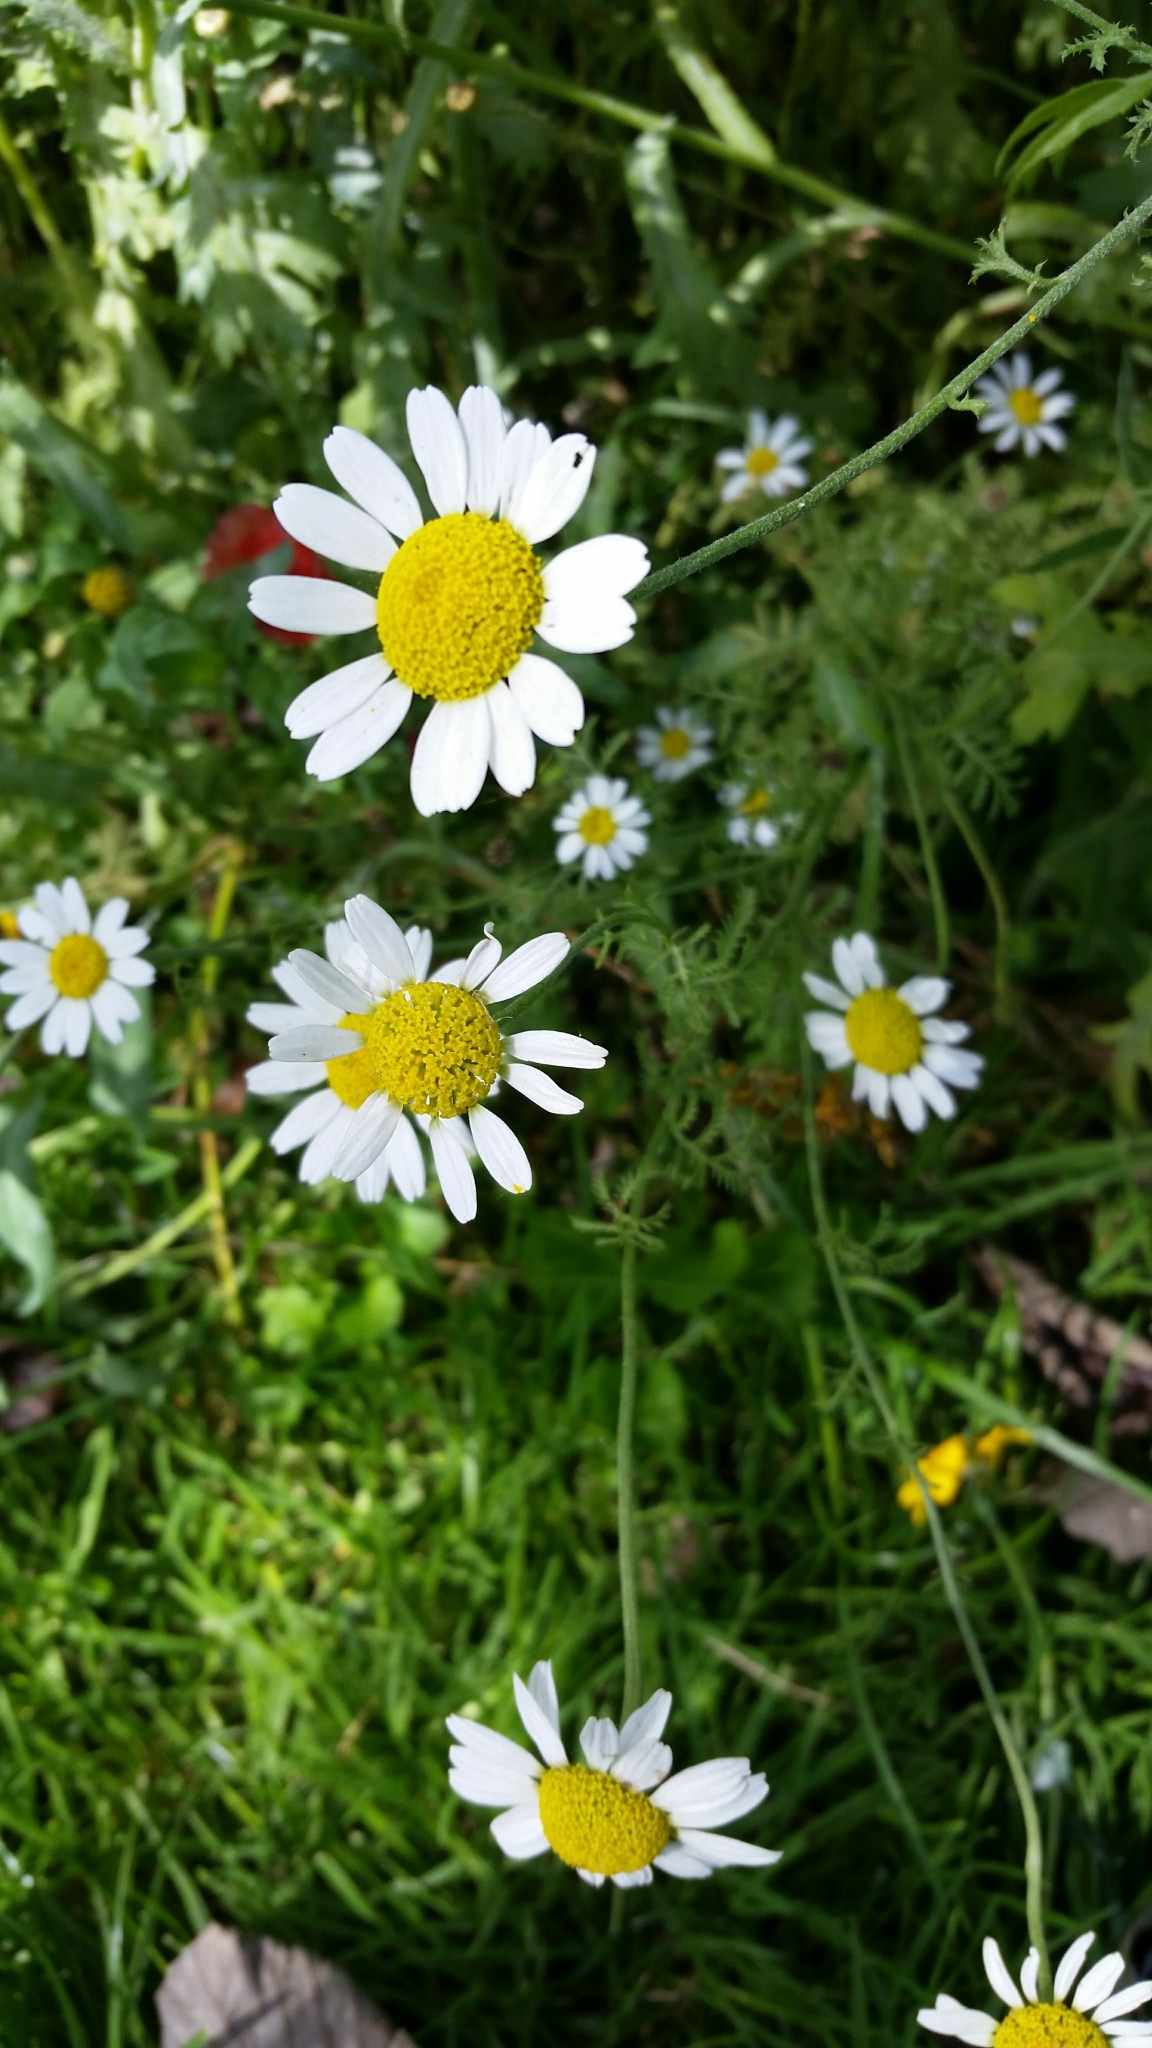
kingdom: Plantae
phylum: Tracheophyta
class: Magnoliopsida
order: Asterales
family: Asteraceae
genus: Tripleurospermum
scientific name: Tripleurospermum inodorum
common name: Scentless mayweed
